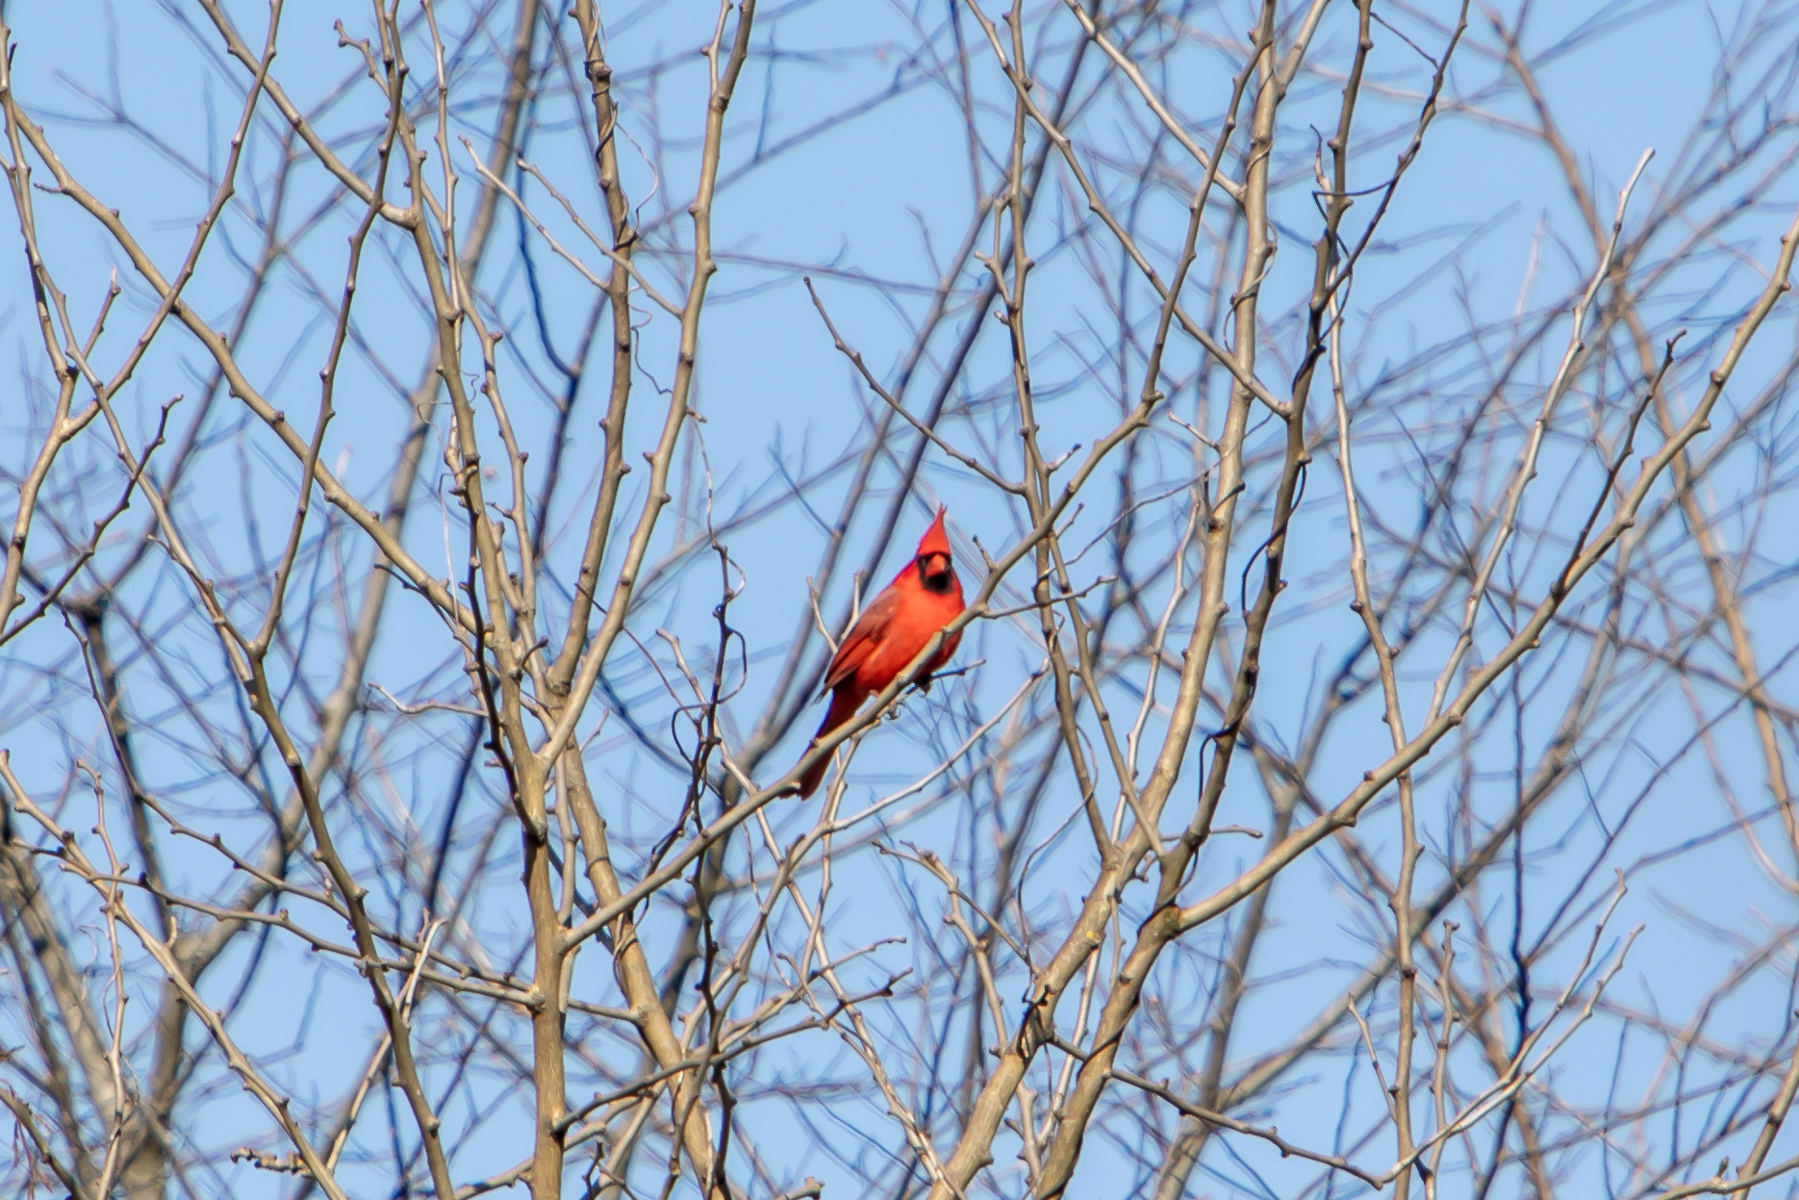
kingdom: Animalia
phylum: Chordata
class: Aves
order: Passeriformes
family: Cardinalidae
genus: Cardinalis
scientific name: Cardinalis cardinalis
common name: Northern cardinal
